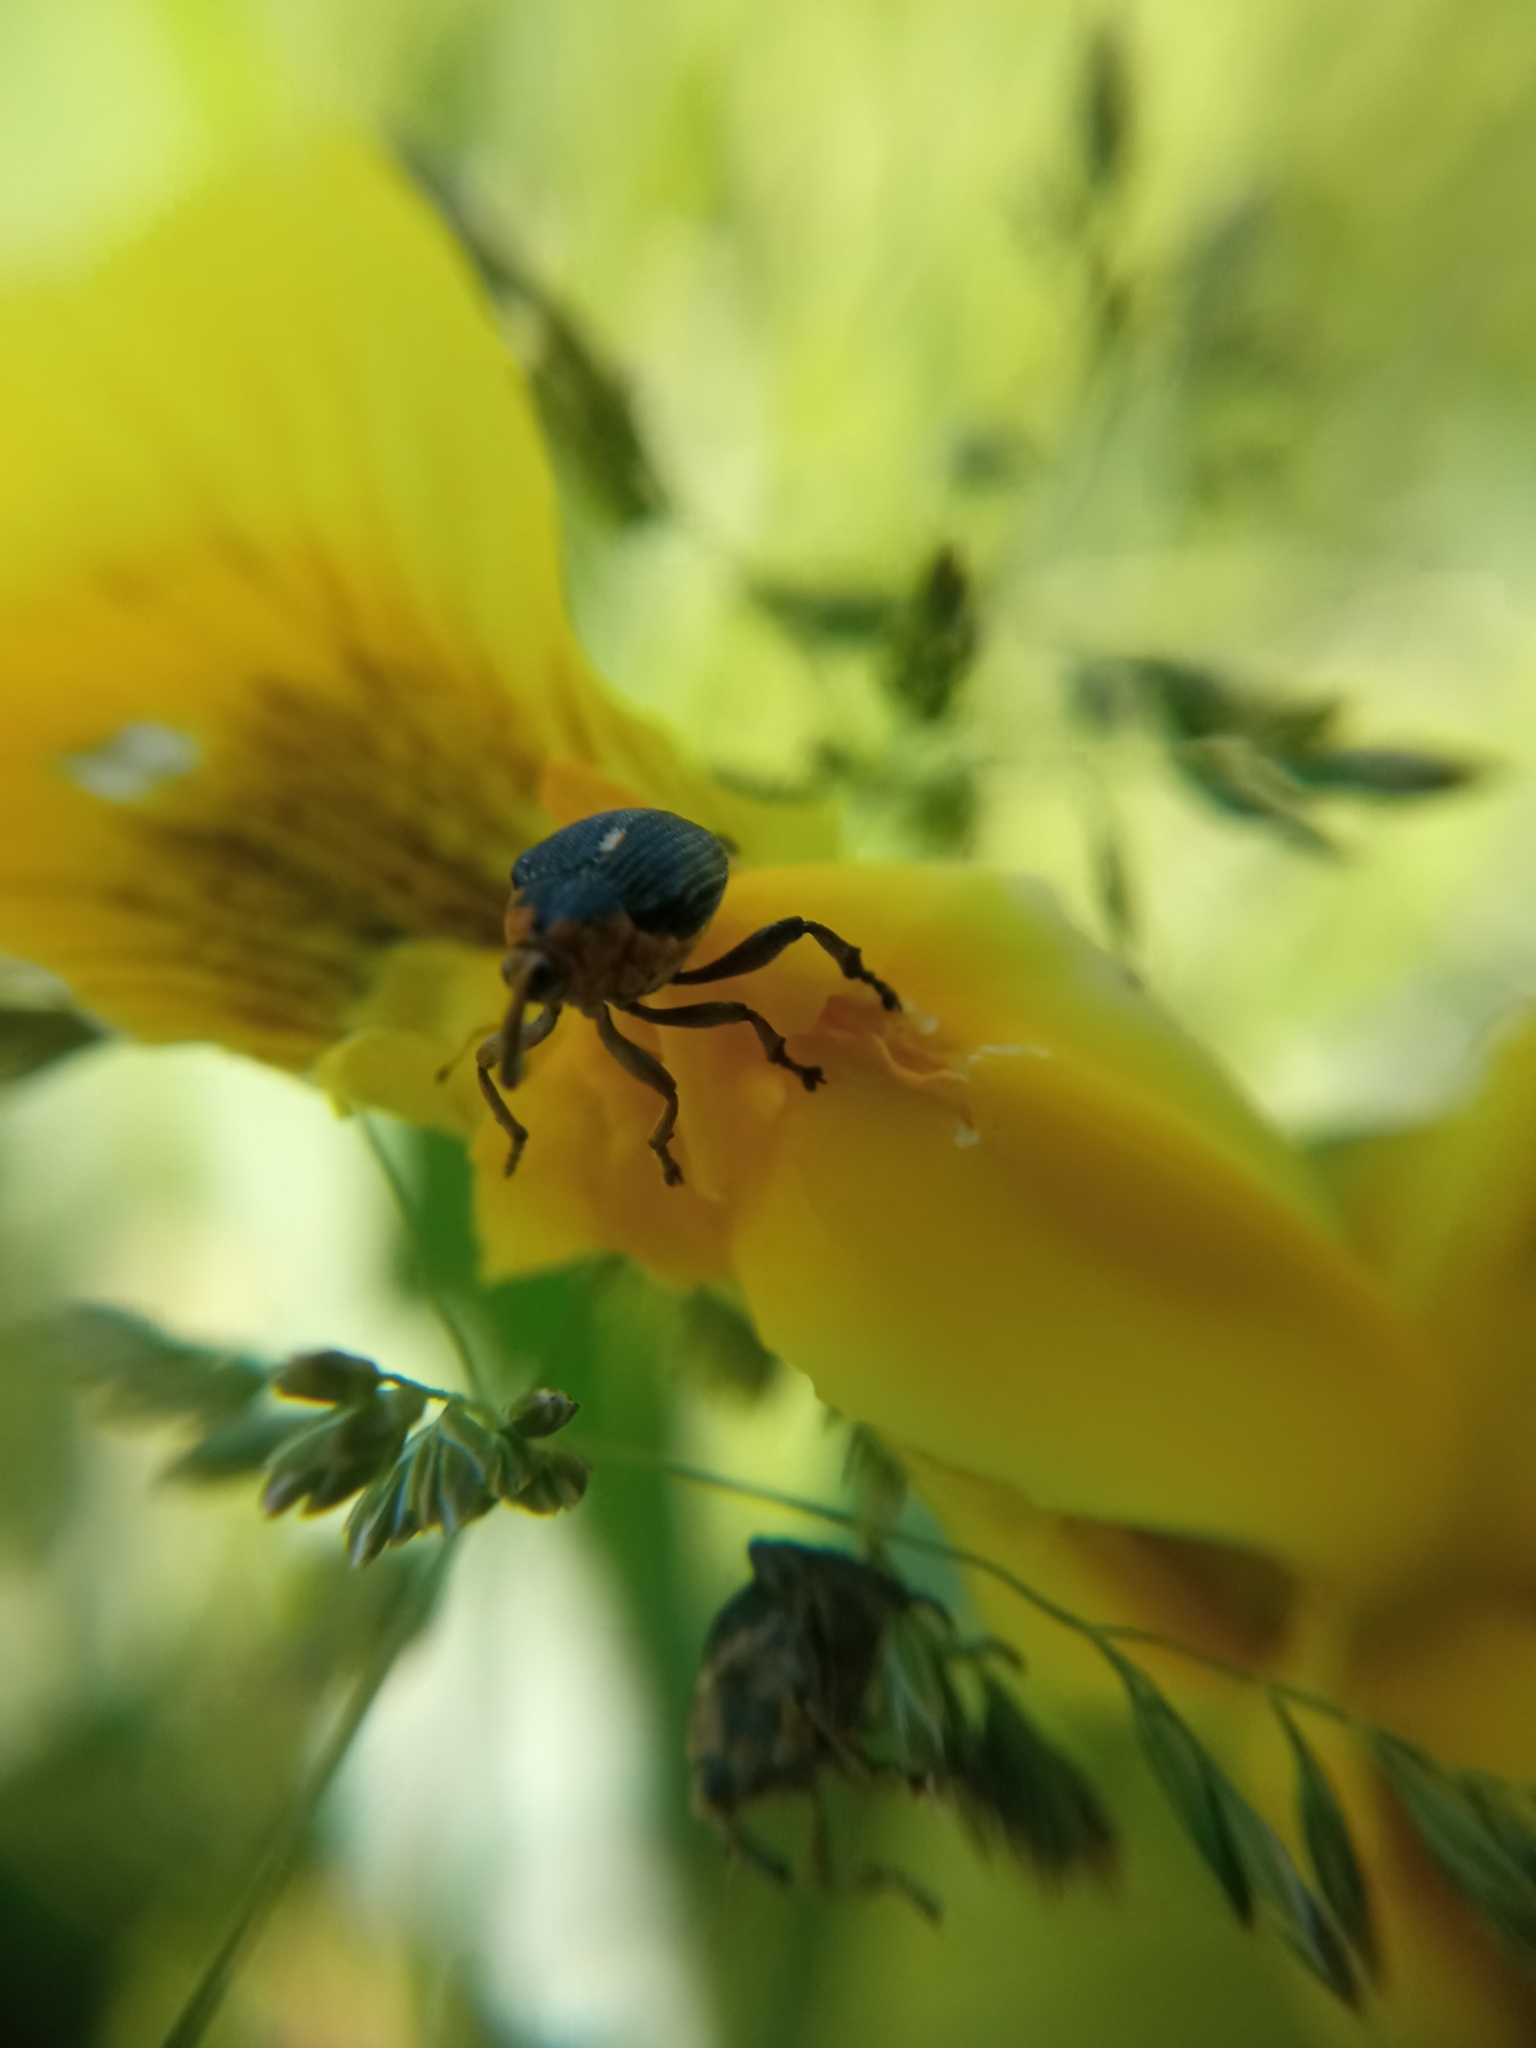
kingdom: Animalia
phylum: Arthropoda
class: Insecta
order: Coleoptera
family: Curculionidae
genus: Mononychus
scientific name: Mononychus punctumalbum
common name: Iris weevil
